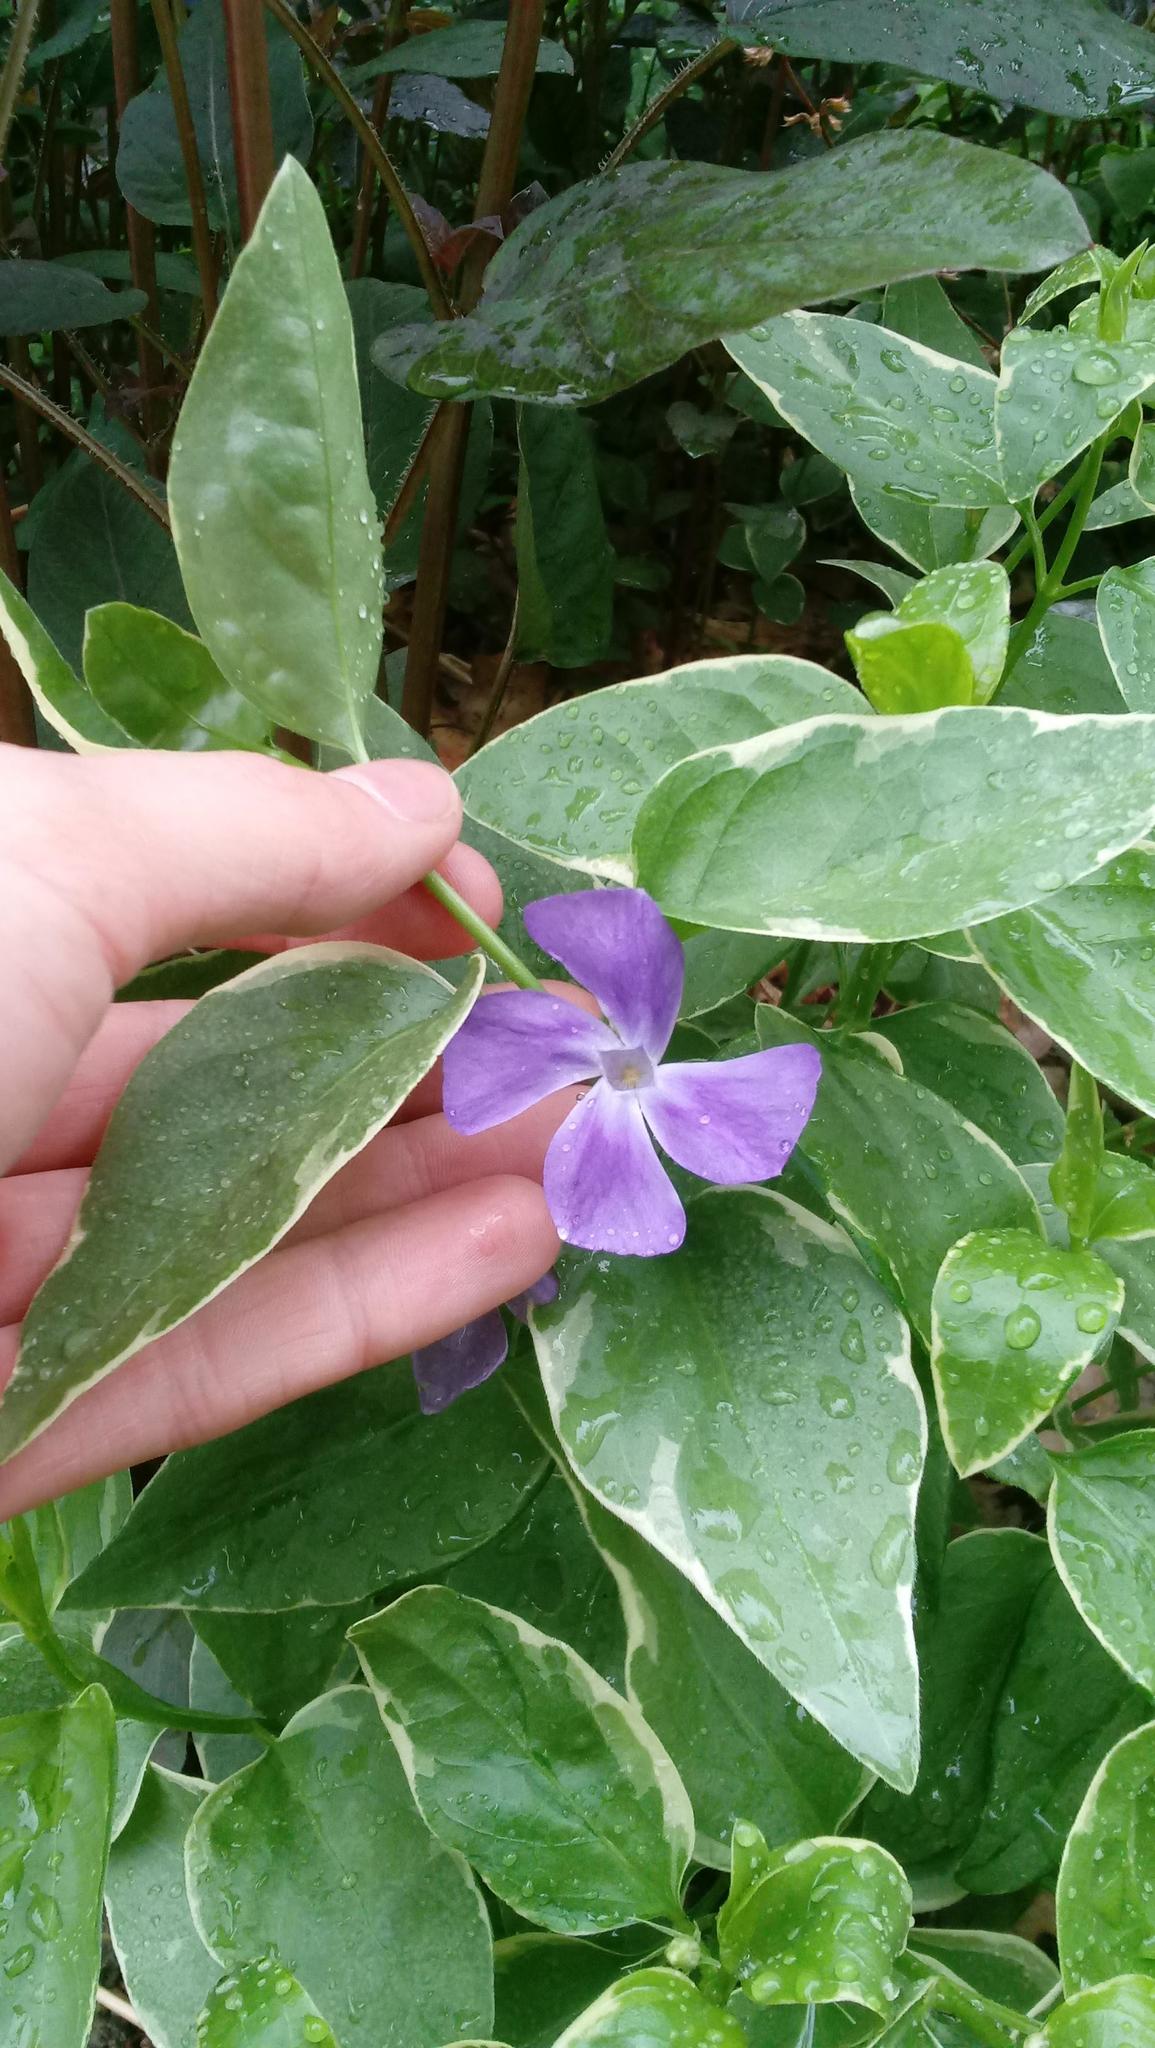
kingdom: Plantae
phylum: Tracheophyta
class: Magnoliopsida
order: Gentianales
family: Apocynaceae
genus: Vinca
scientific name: Vinca major
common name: Greater periwinkle
